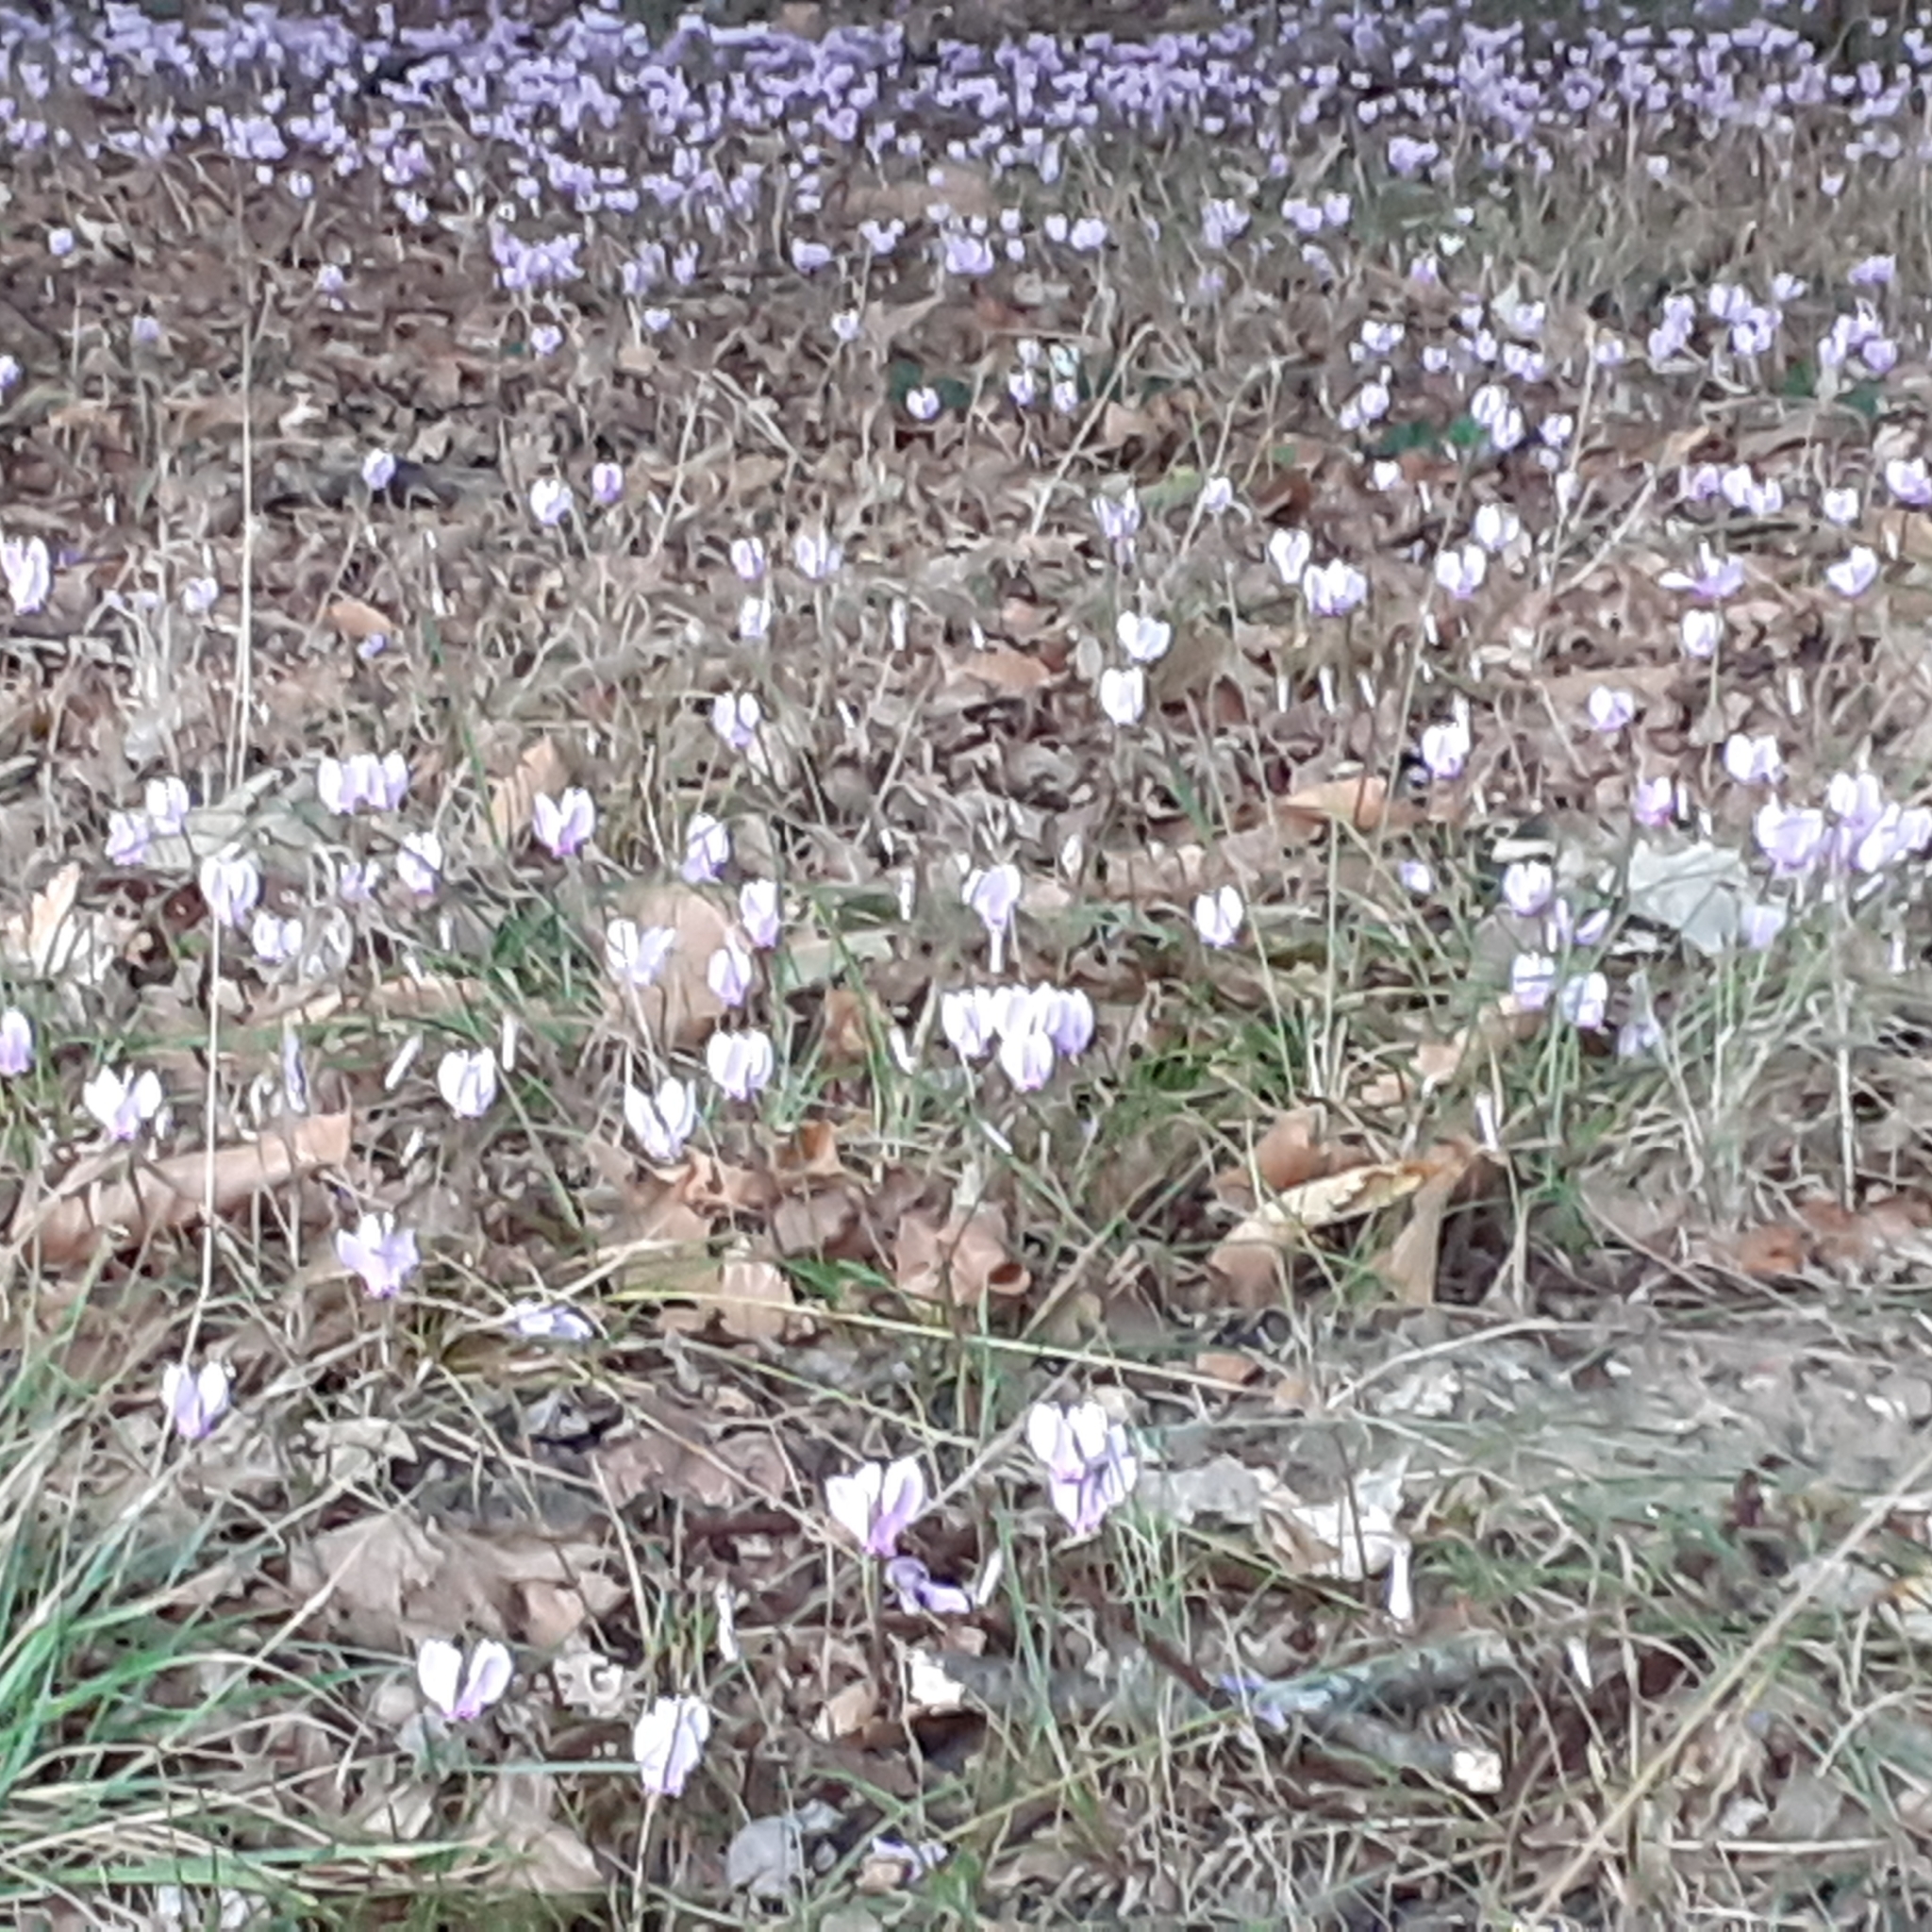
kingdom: Plantae
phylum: Tracheophyta
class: Magnoliopsida
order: Ericales
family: Primulaceae
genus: Cyclamen
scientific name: Cyclamen hederifolium
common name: Sowbread
